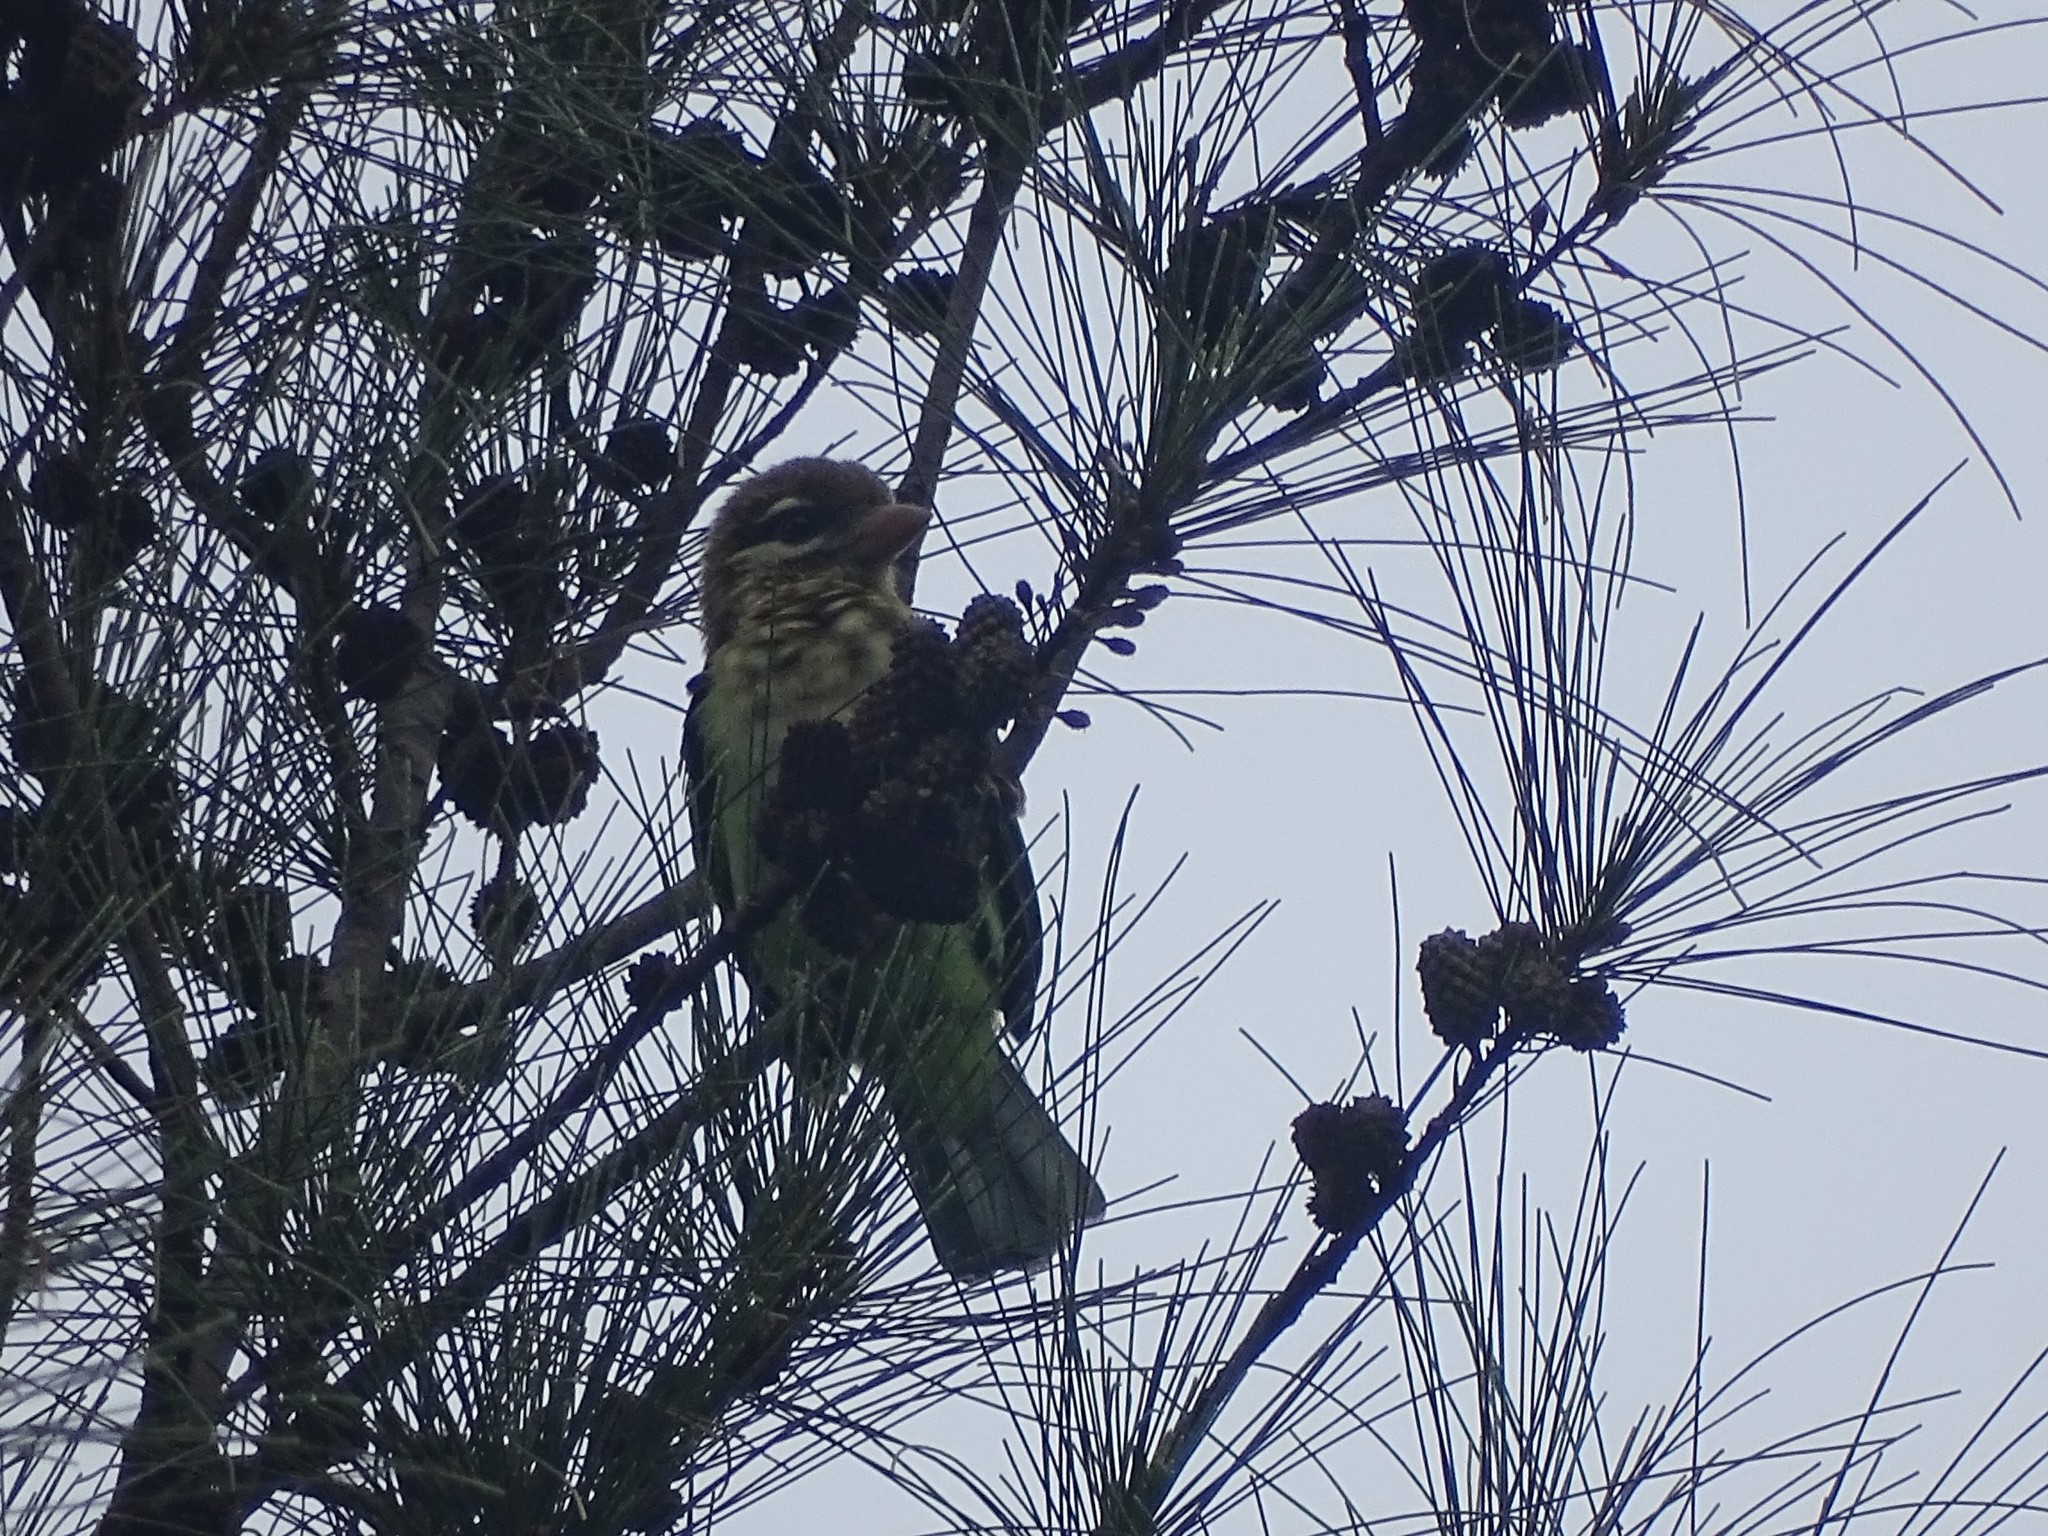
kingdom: Animalia
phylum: Chordata
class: Aves
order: Piciformes
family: Megalaimidae
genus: Psilopogon
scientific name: Psilopogon viridis
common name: White-cheeked barbet
